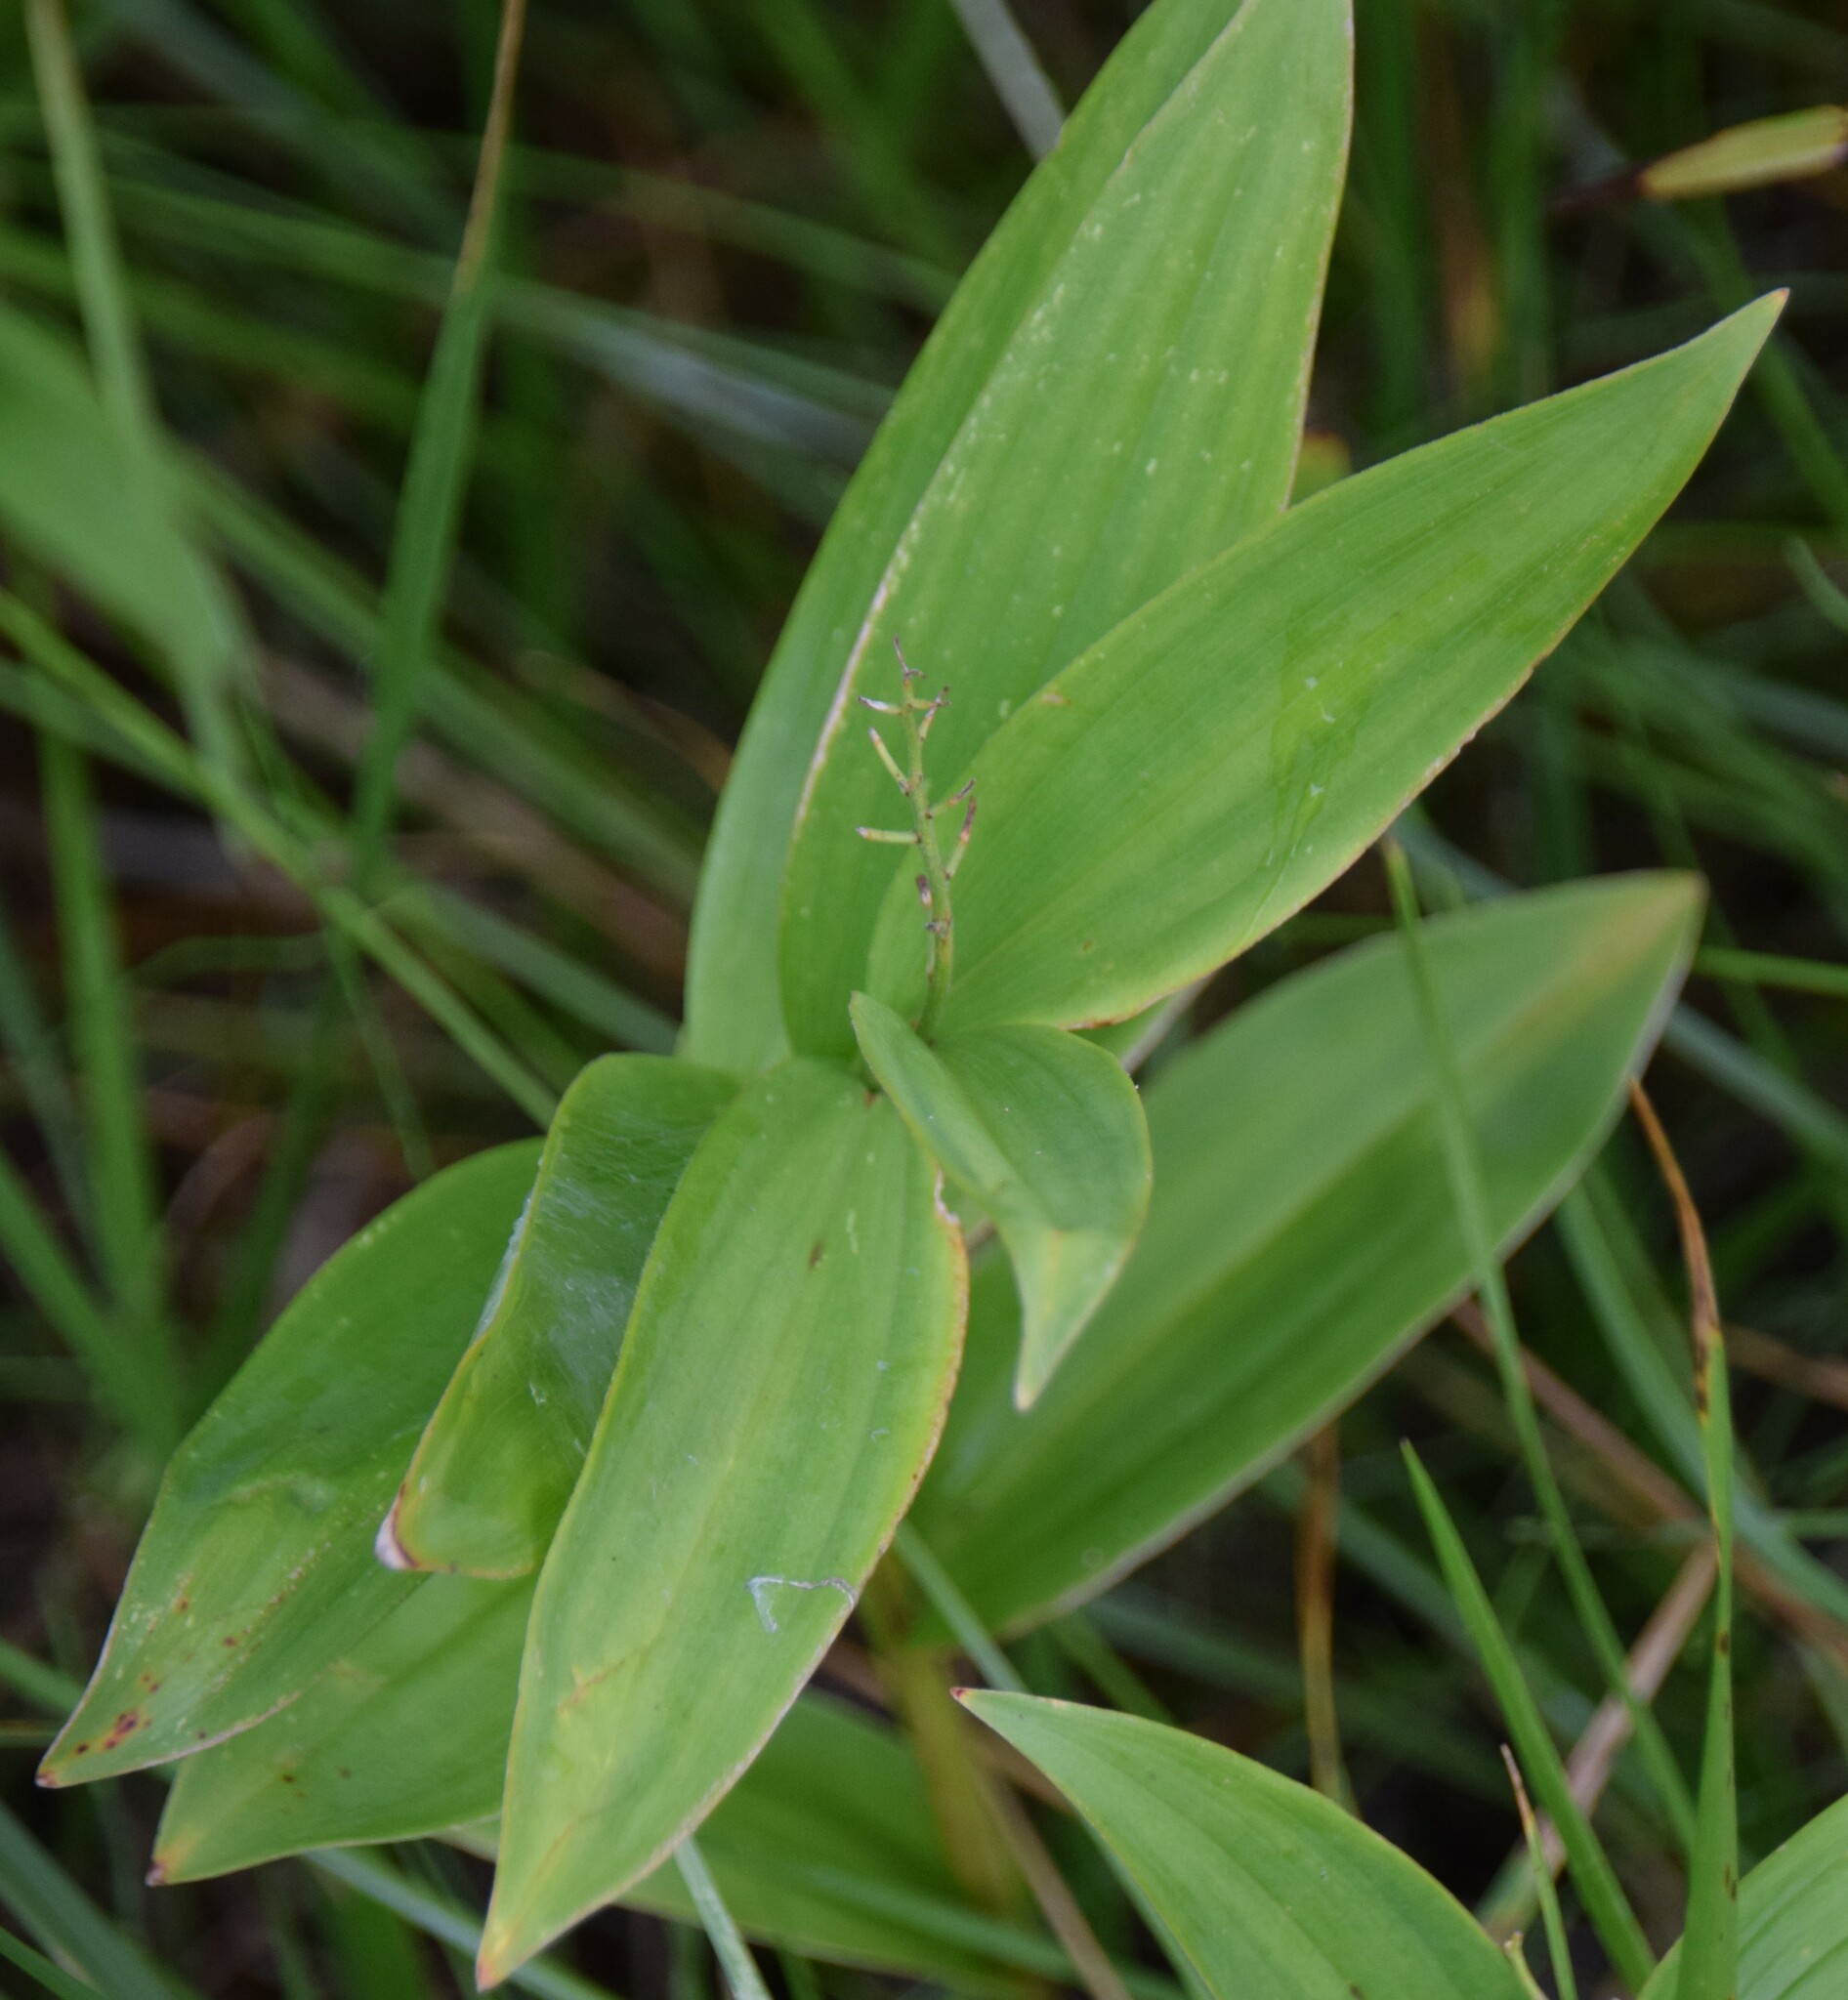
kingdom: Plantae
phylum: Tracheophyta
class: Liliopsida
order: Asparagales
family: Asparagaceae
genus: Maianthemum
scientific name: Maianthemum stellatum
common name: Little false solomon's seal
